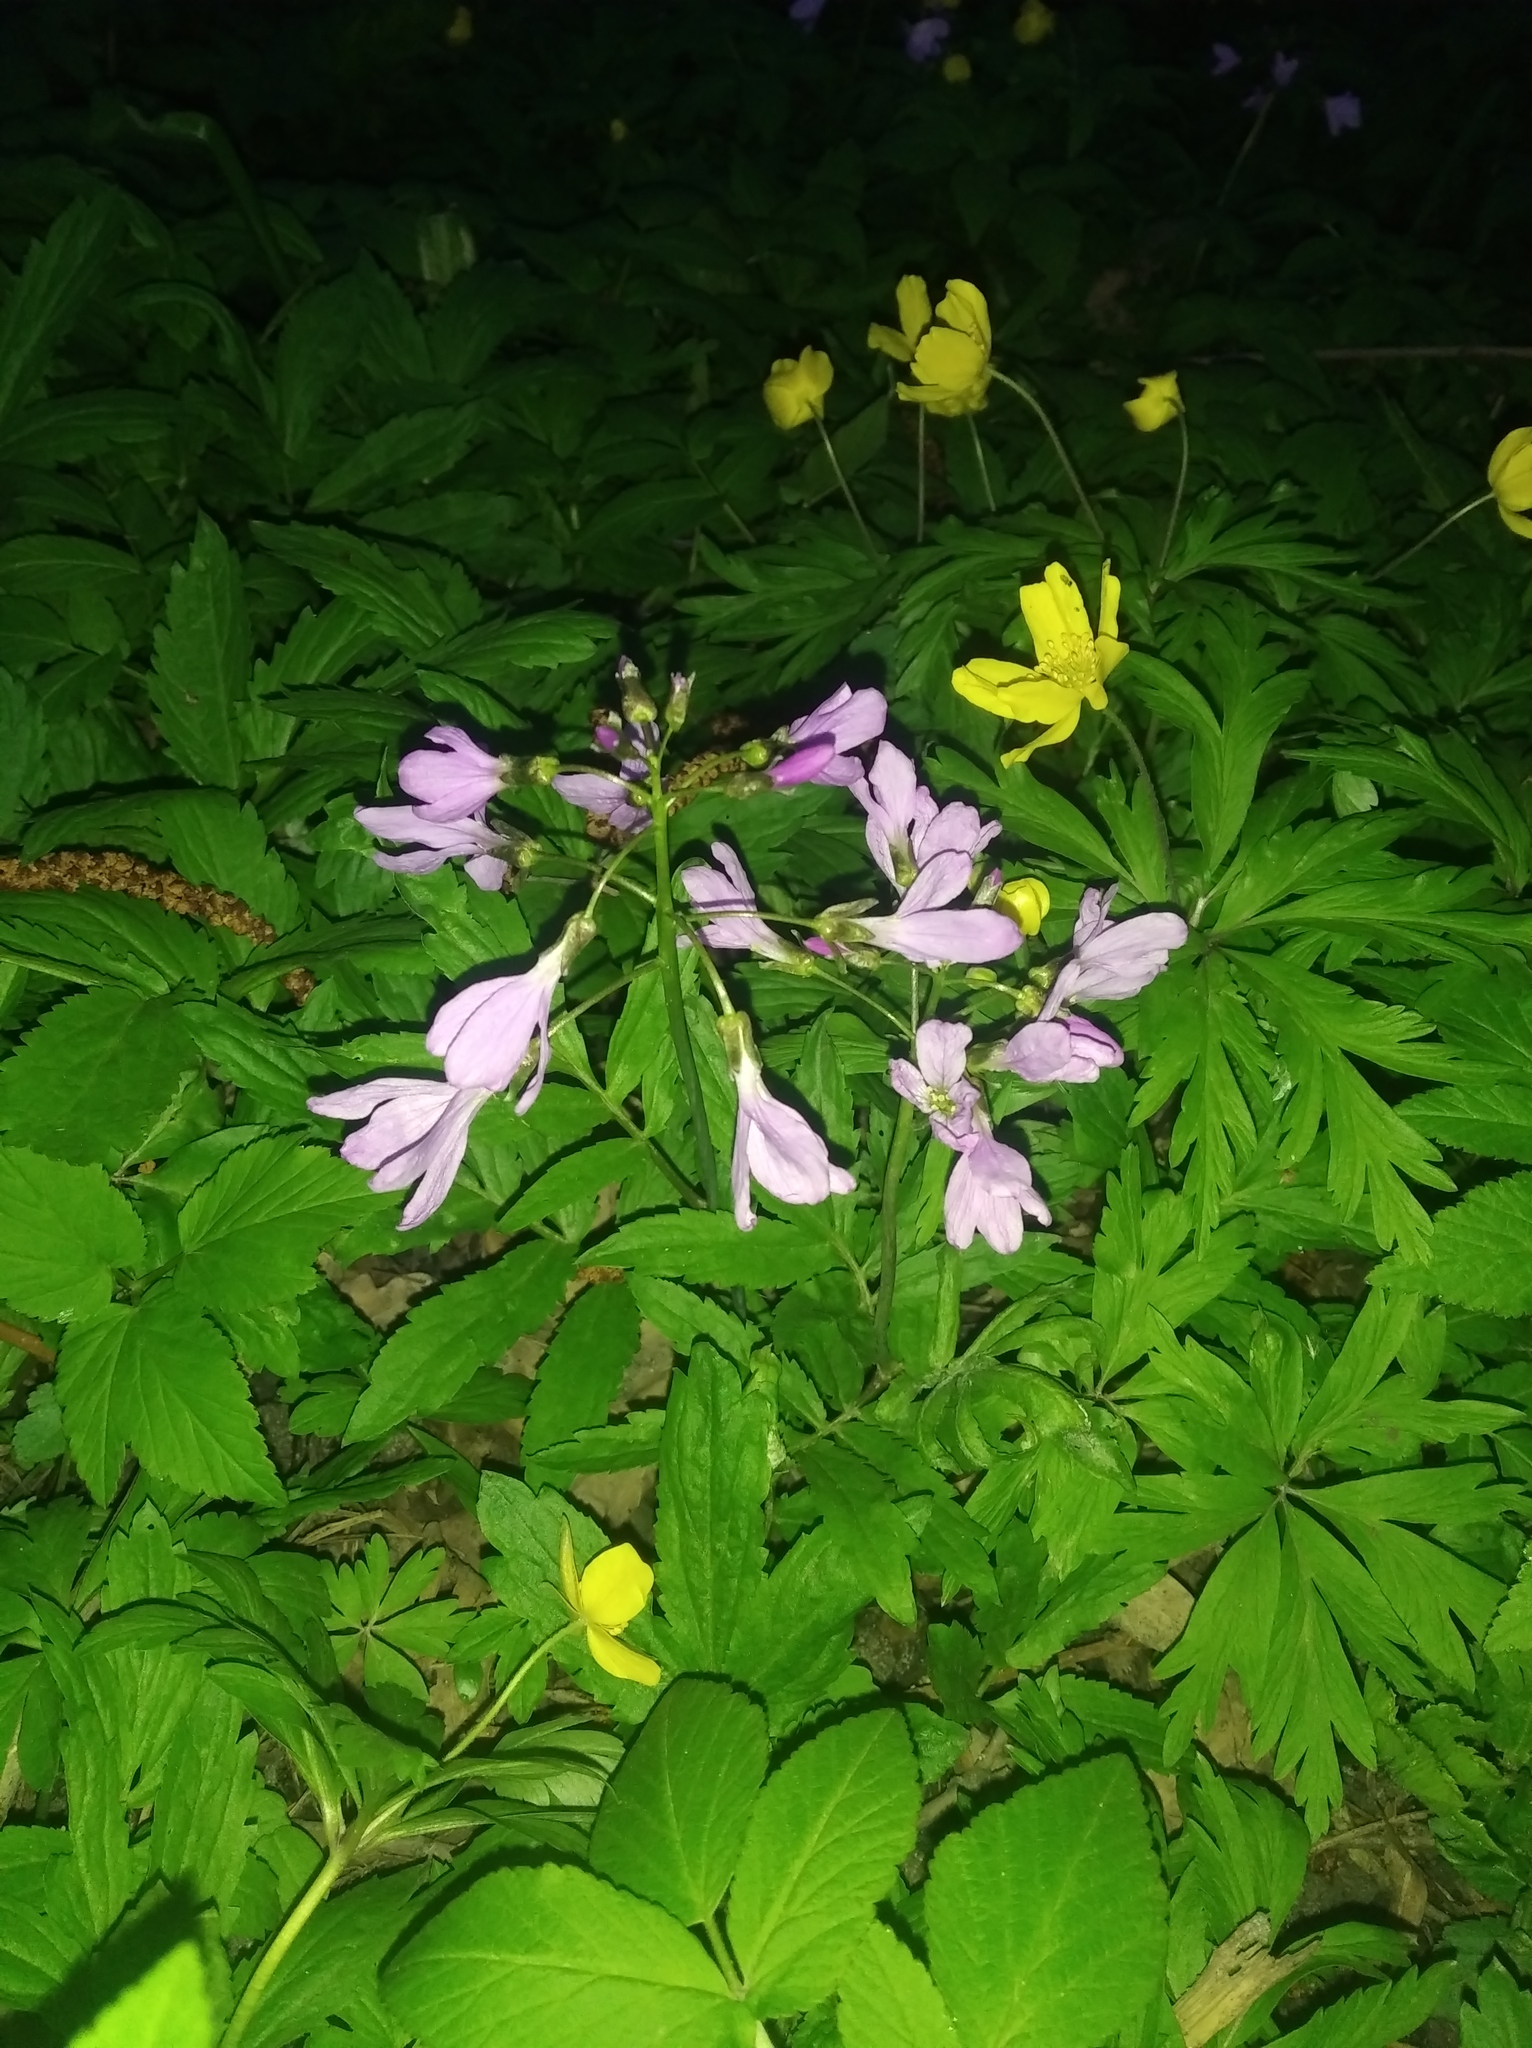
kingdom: Plantae
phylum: Tracheophyta
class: Magnoliopsida
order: Brassicales
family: Brassicaceae
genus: Cardamine
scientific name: Cardamine quinquefolia
